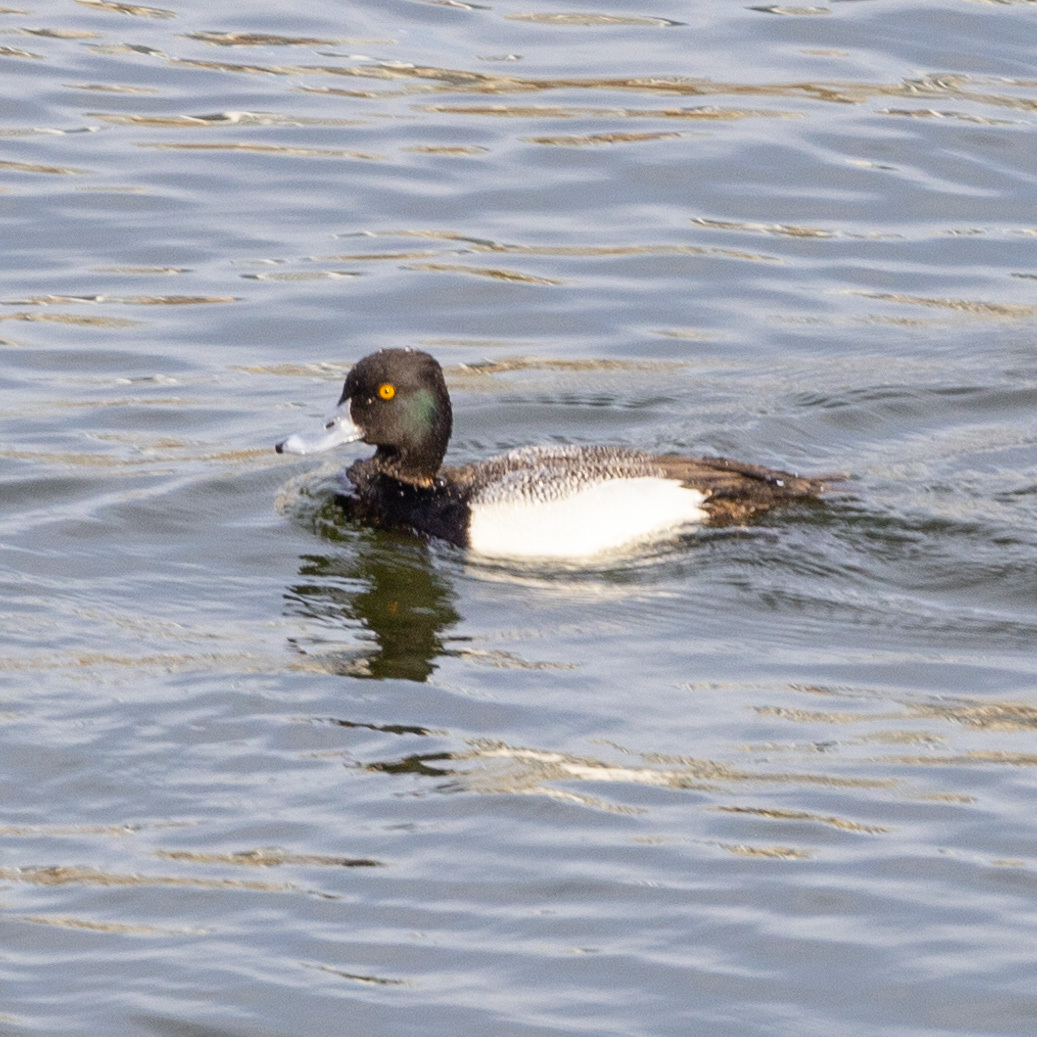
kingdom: Animalia
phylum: Chordata
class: Aves
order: Anseriformes
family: Anatidae
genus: Aythya
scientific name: Aythya affinis
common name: Lesser scaup
